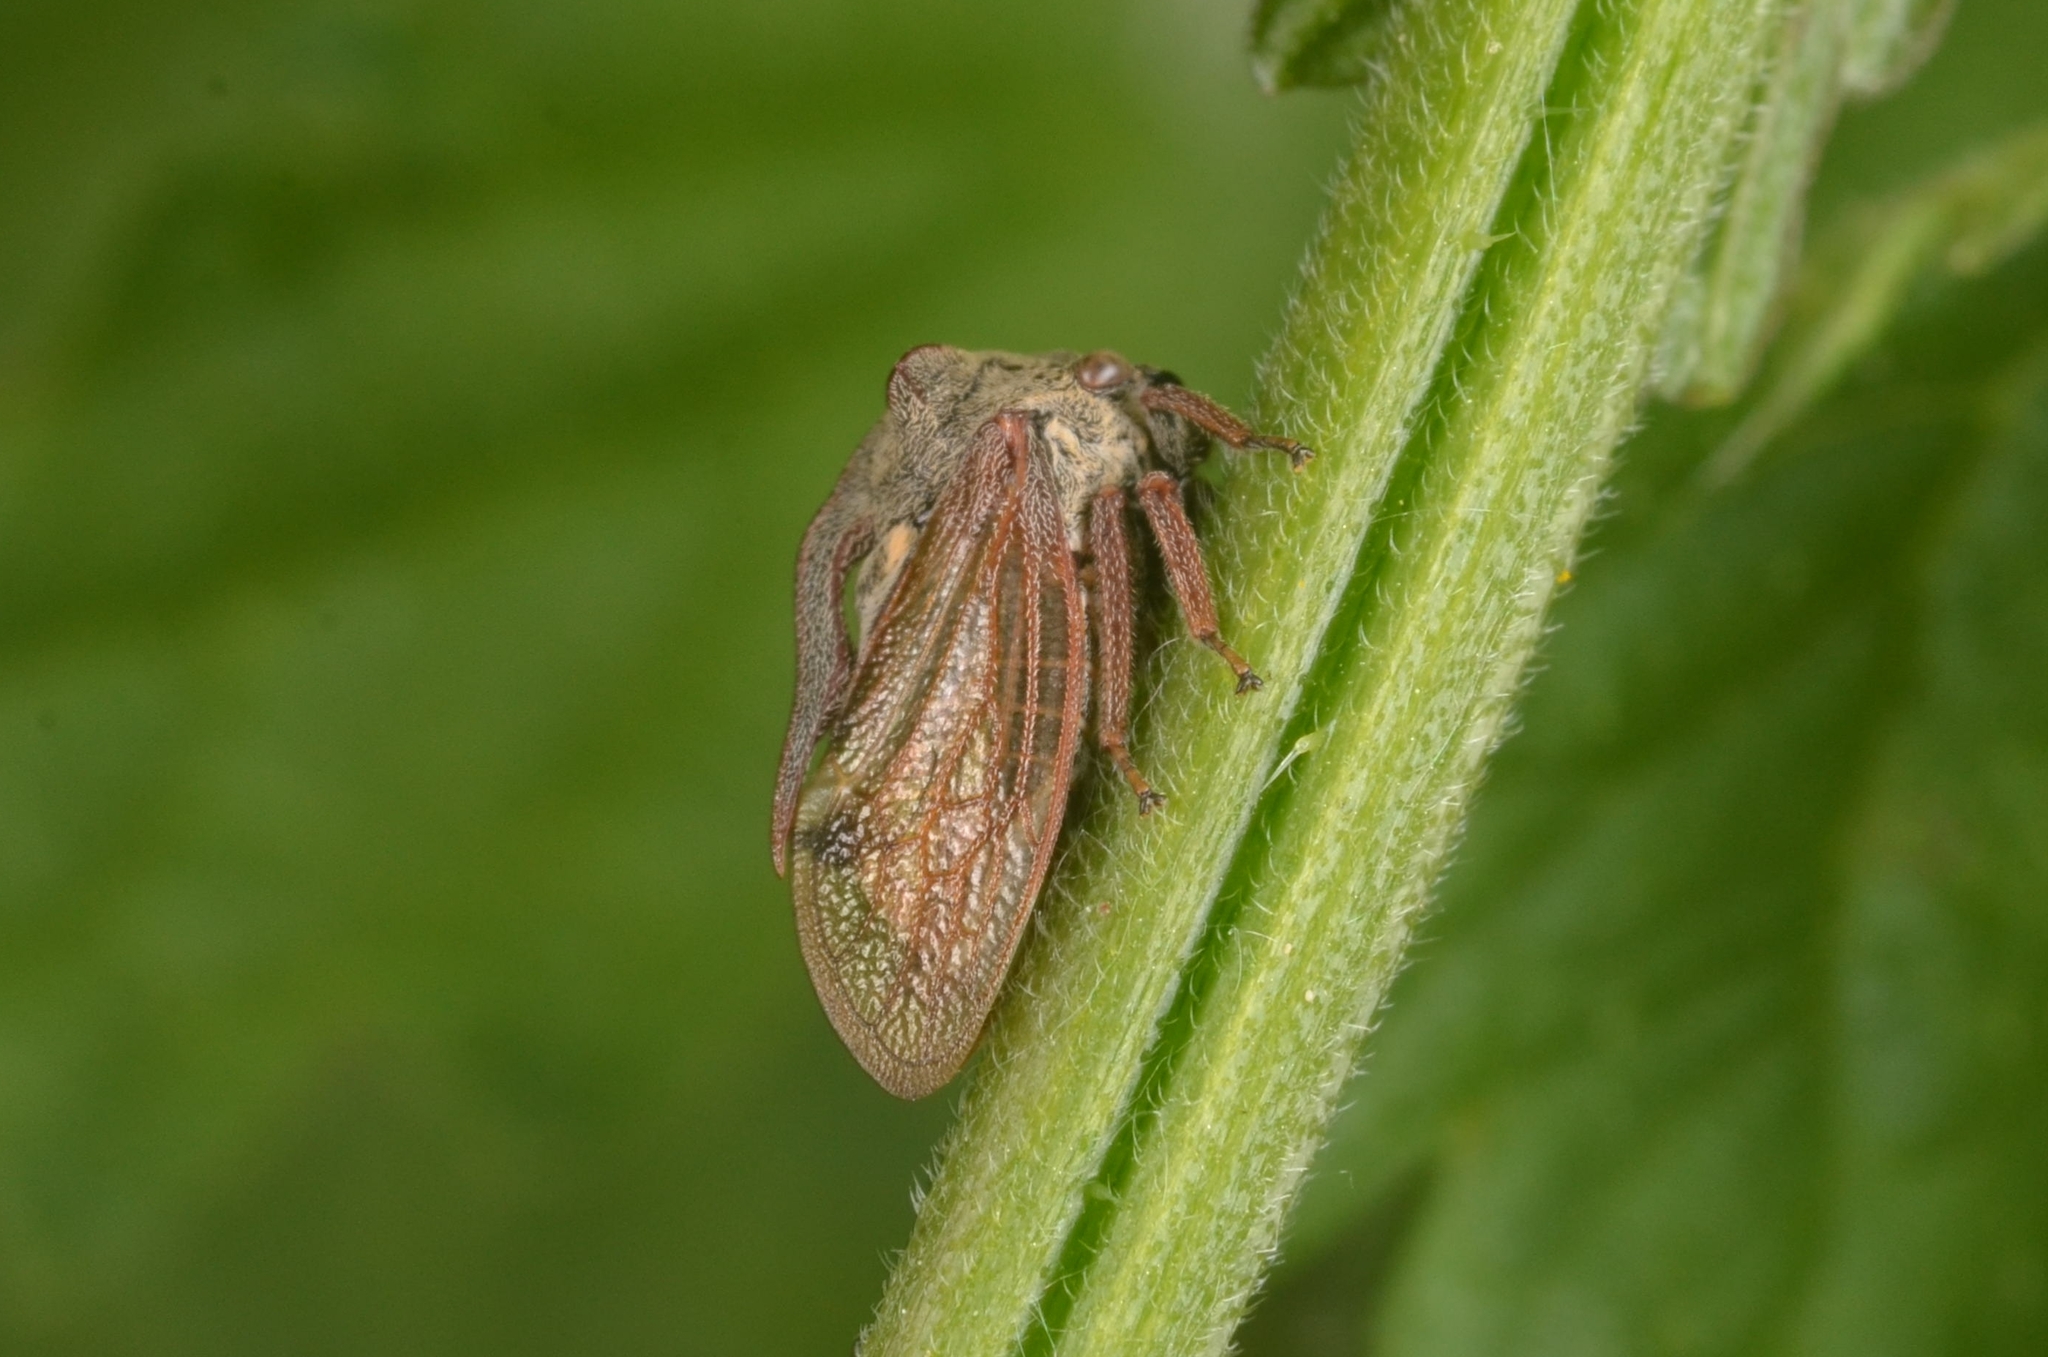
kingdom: Animalia
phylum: Arthropoda
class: Insecta
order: Hemiptera
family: Membracidae
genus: Centrotus
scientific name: Centrotus cornuta
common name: Treehopper
